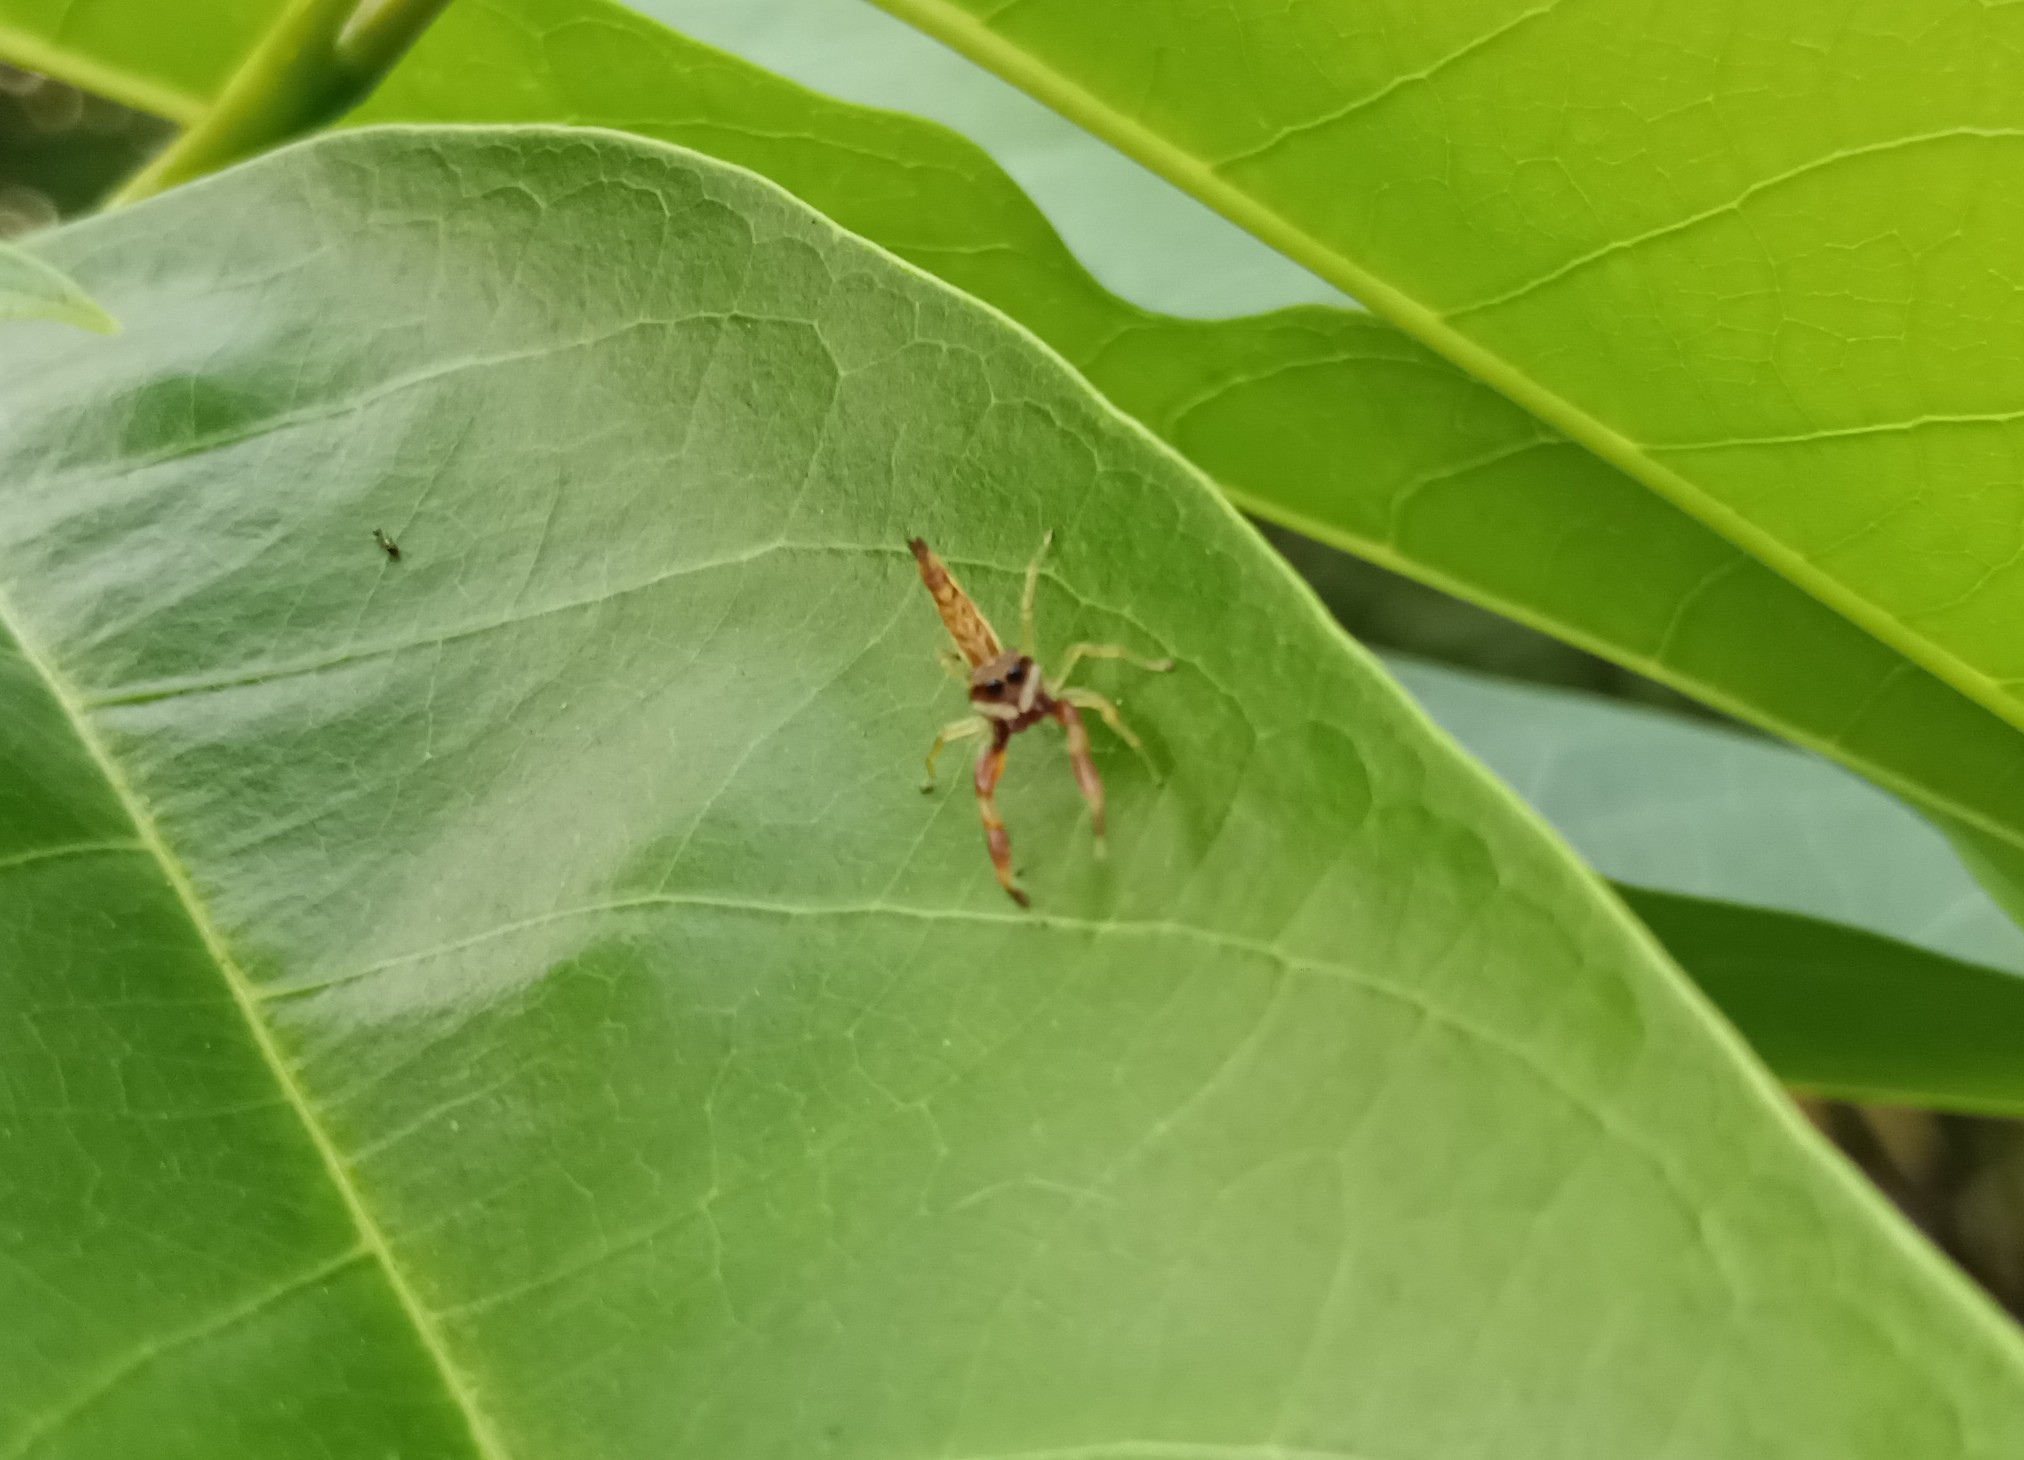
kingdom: Animalia
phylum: Arthropoda
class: Arachnida
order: Araneae
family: Salticidae
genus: Indopadilla
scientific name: Indopadilla insularis
